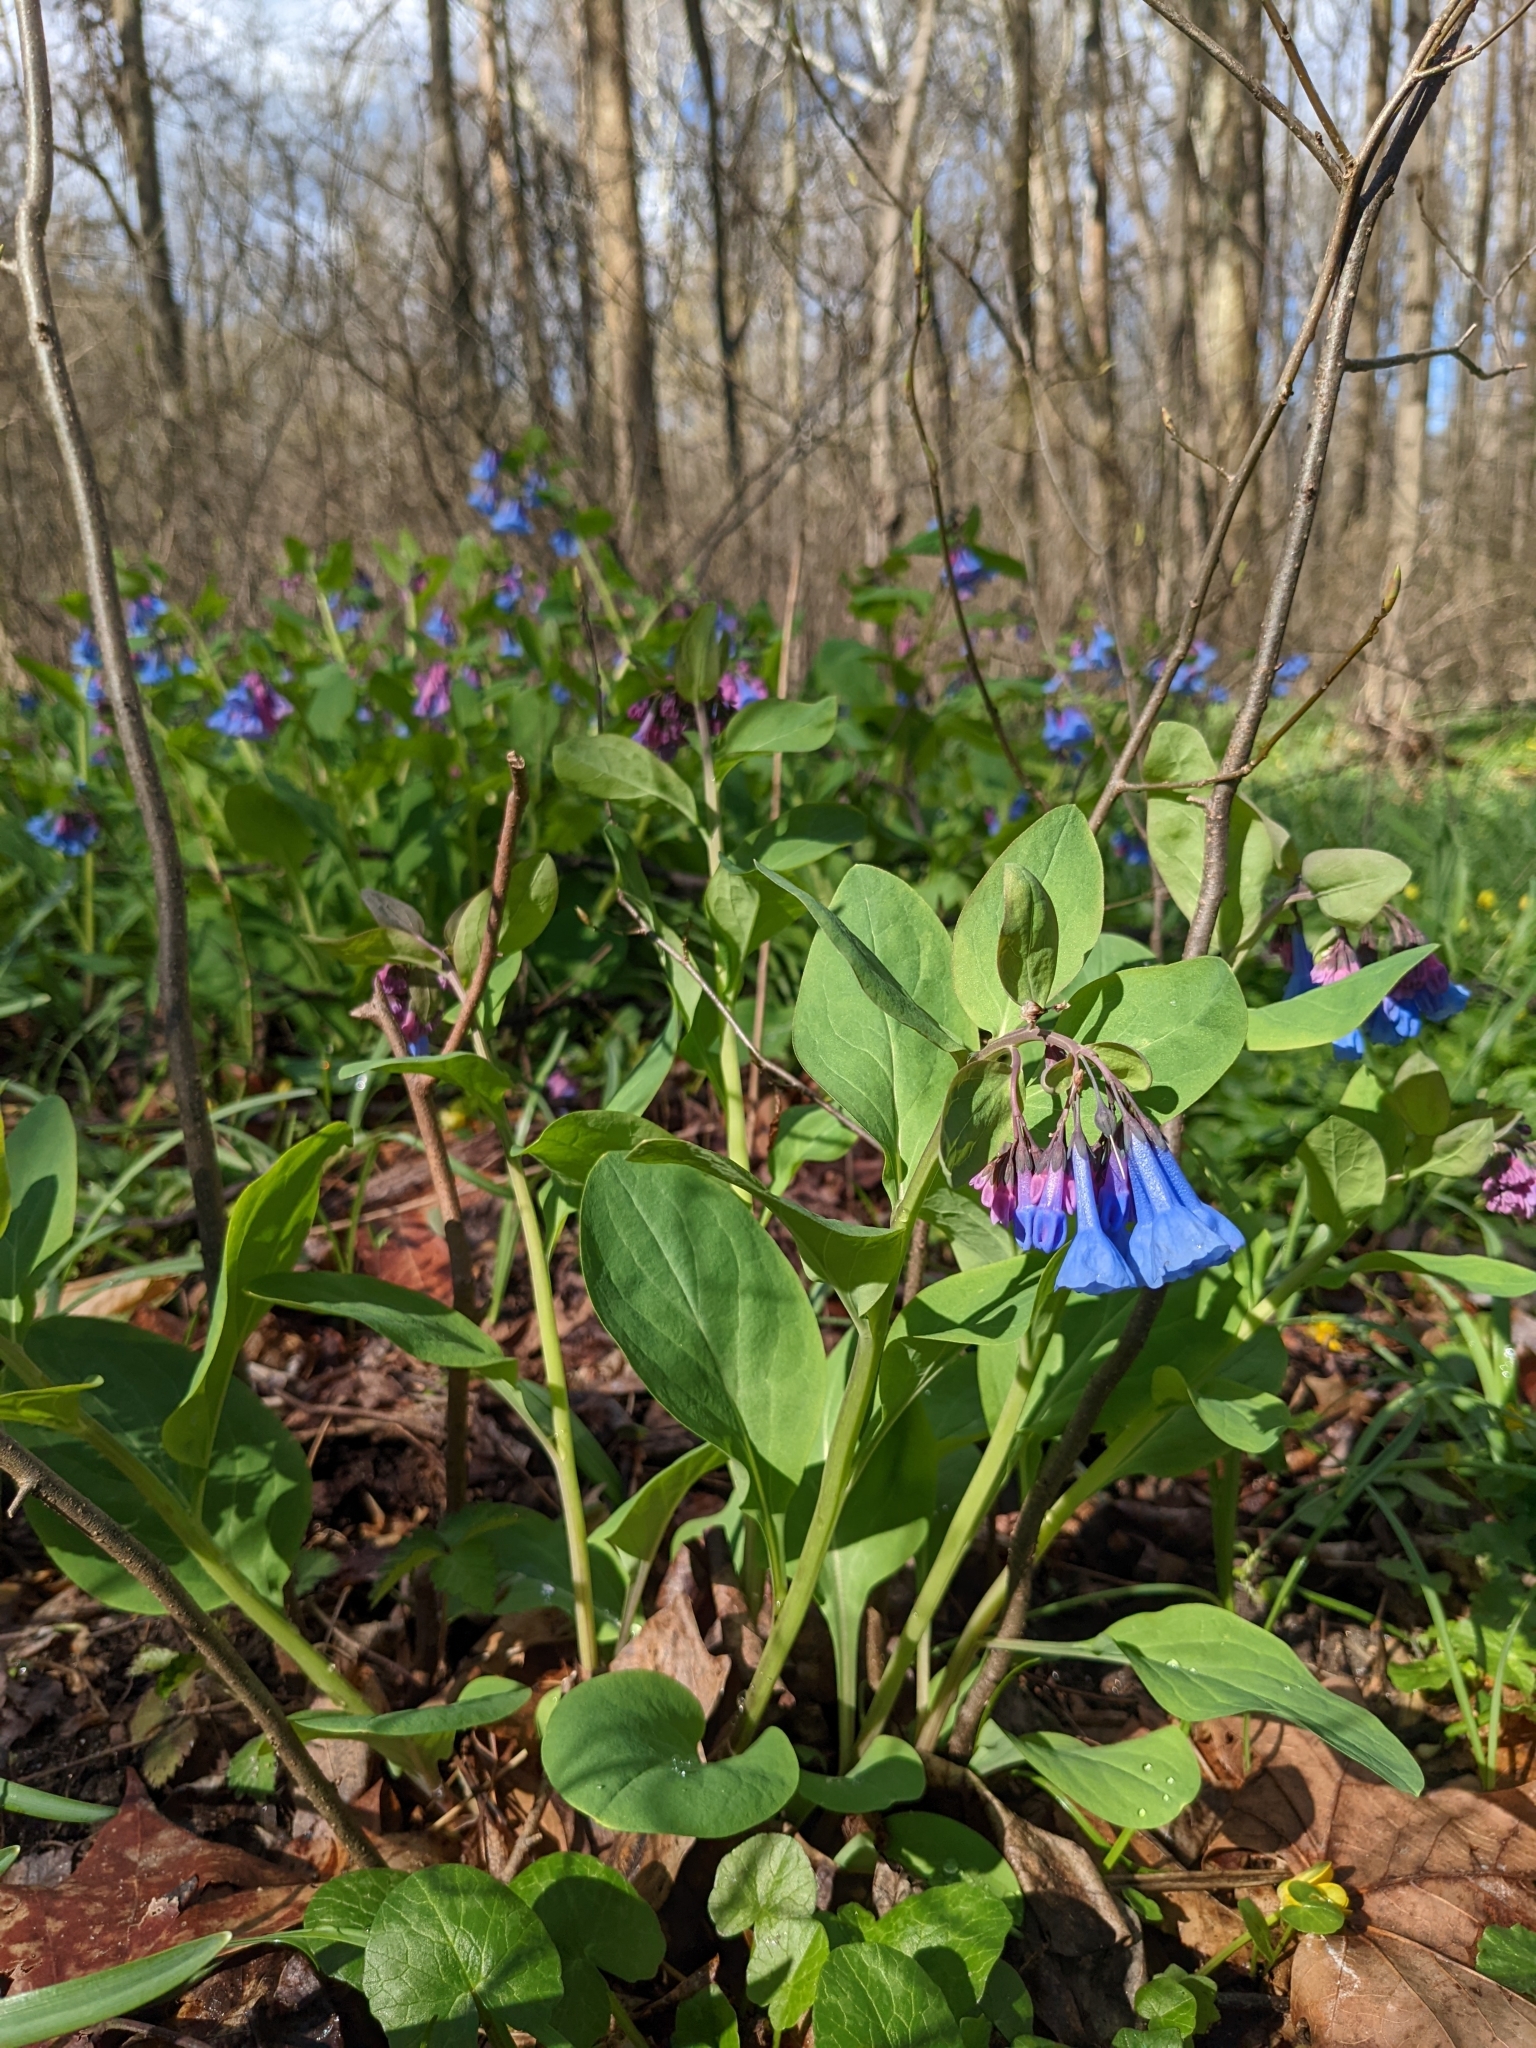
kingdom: Plantae
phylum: Tracheophyta
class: Magnoliopsida
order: Boraginales
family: Boraginaceae
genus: Mertensia
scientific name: Mertensia virginica
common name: Virginia bluebells
